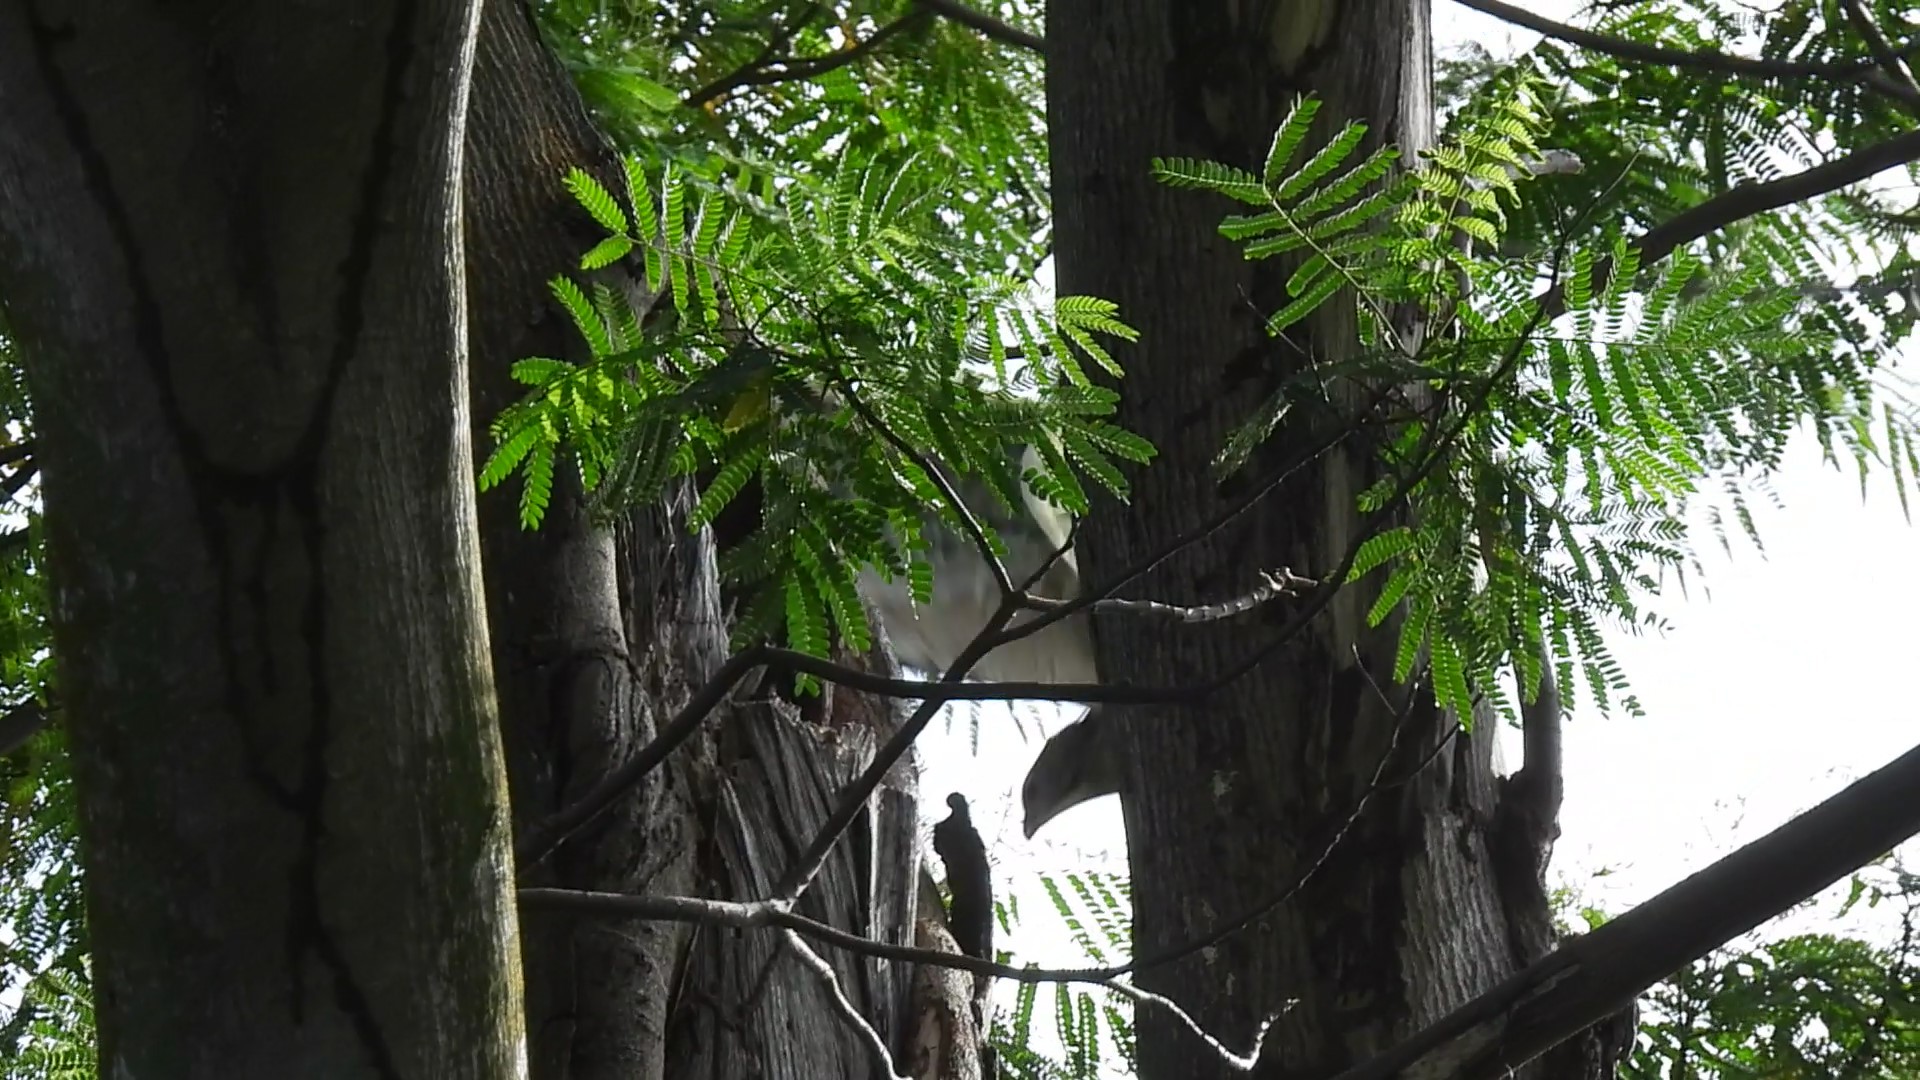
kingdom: Animalia
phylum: Chordata
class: Aves
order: Accipitriformes
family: Accipitridae
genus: Pernis
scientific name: Pernis ptilorhynchus
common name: Crested honey buzzard
